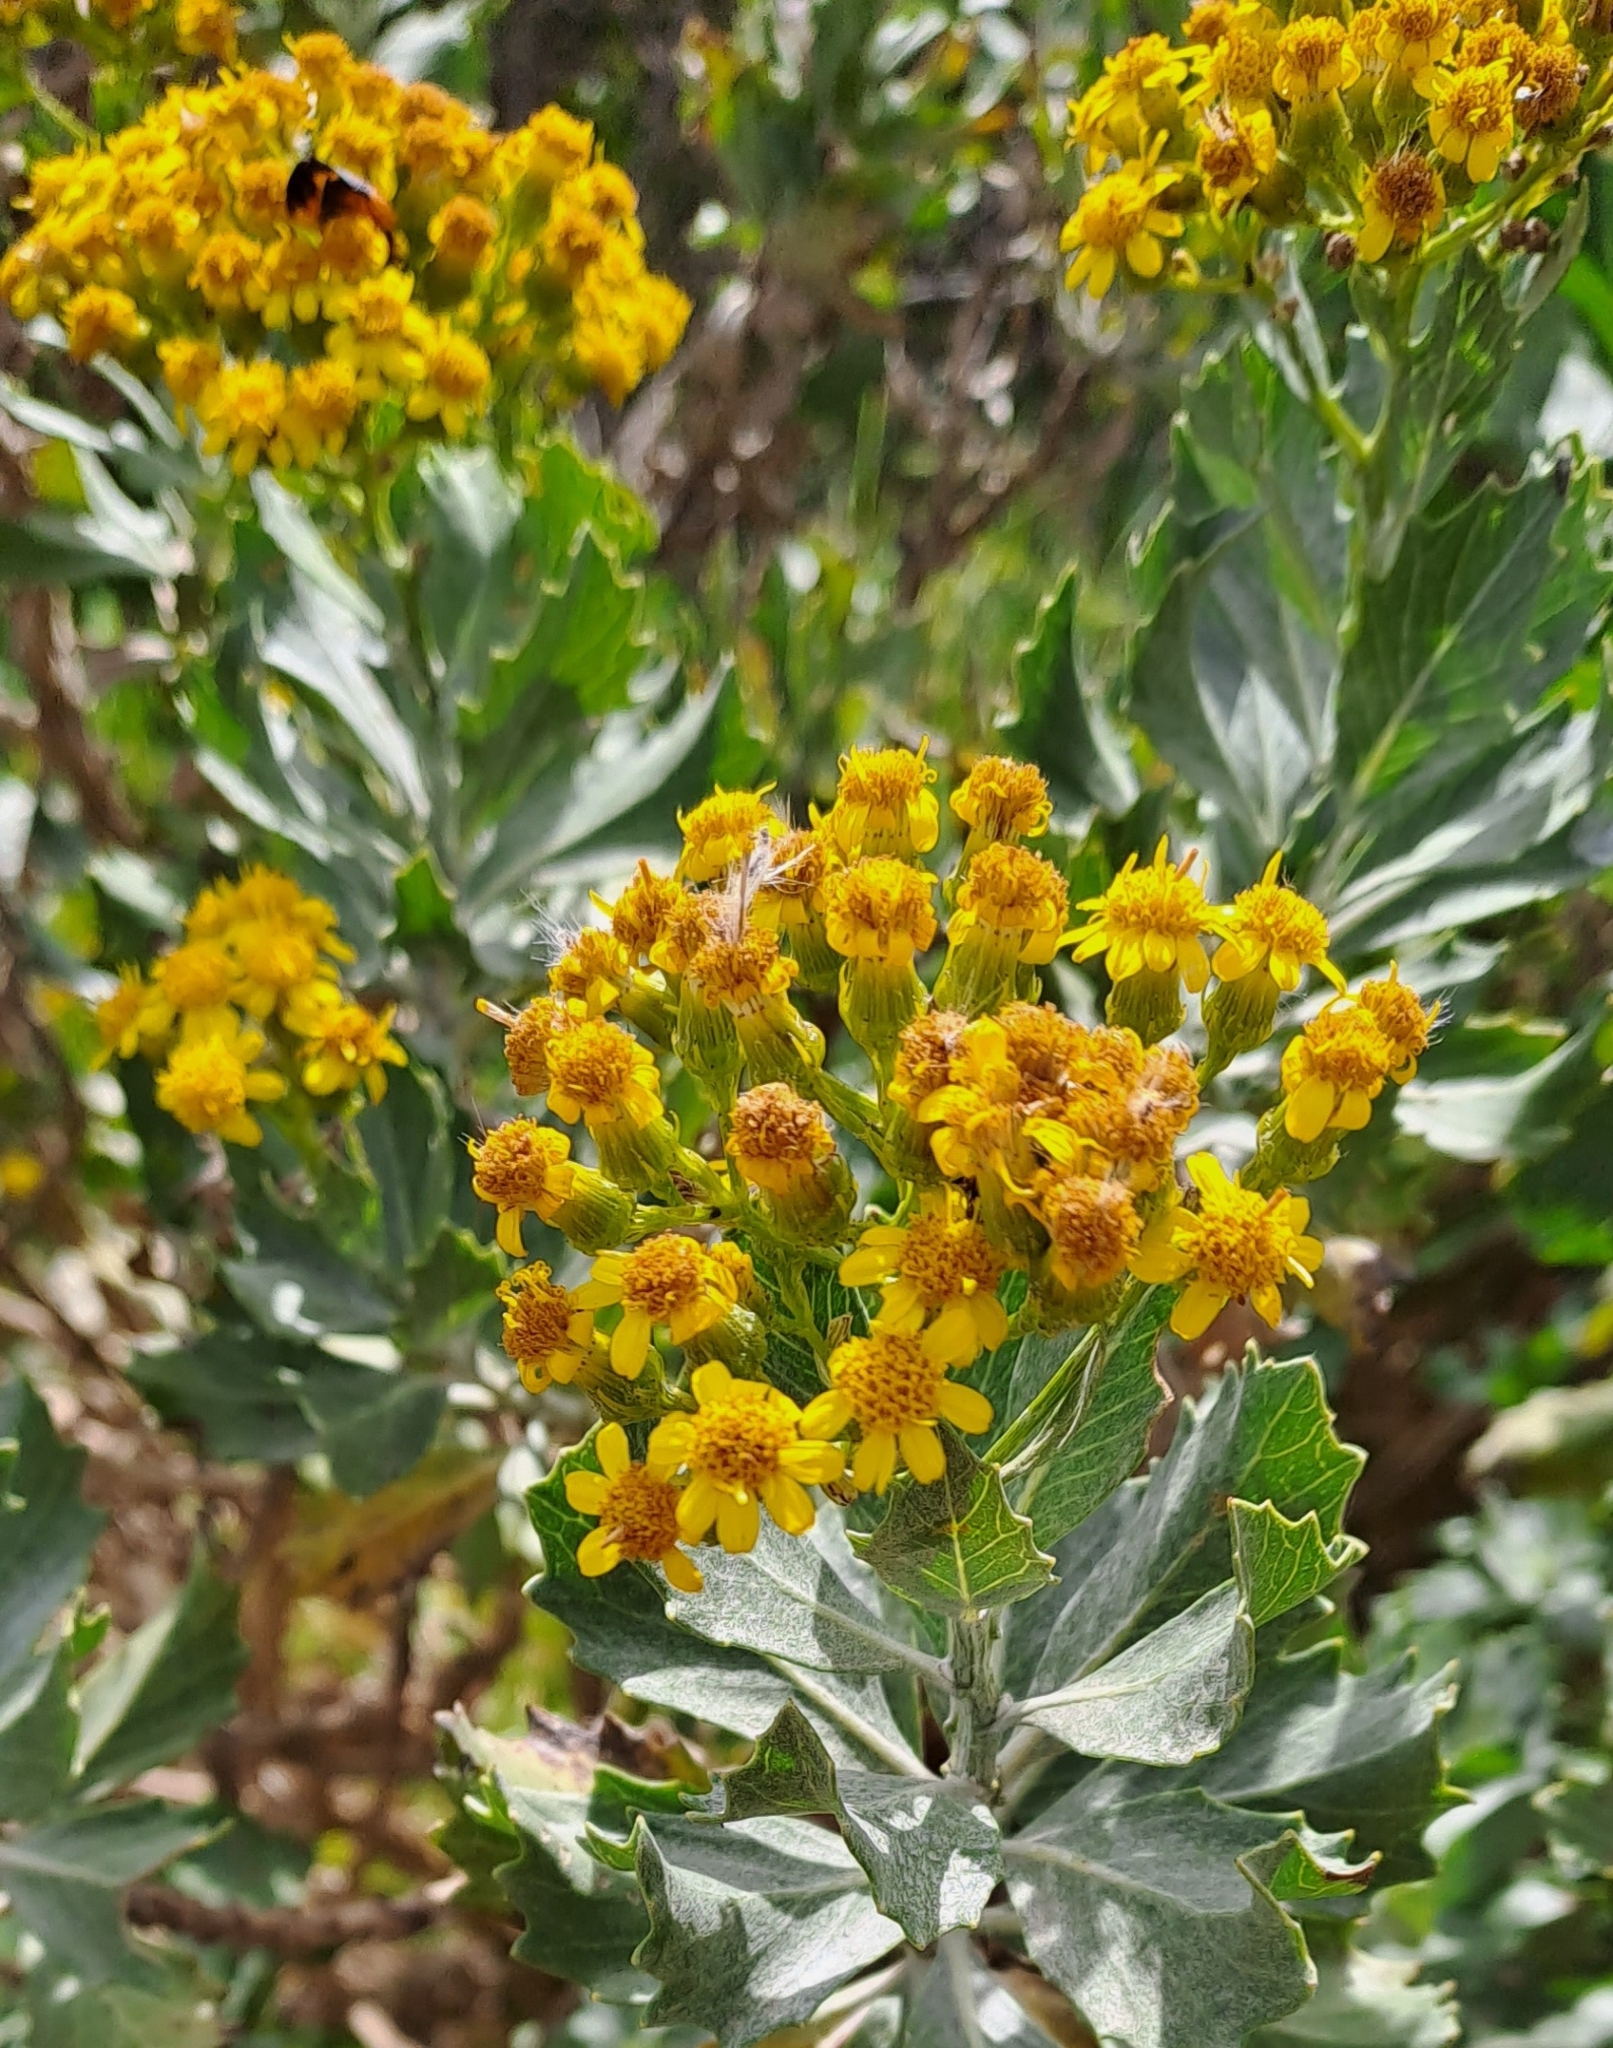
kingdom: Plantae
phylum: Tracheophyta
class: Magnoliopsida
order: Asterales
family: Asteraceae
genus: Senecio
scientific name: Senecio halimifolius
